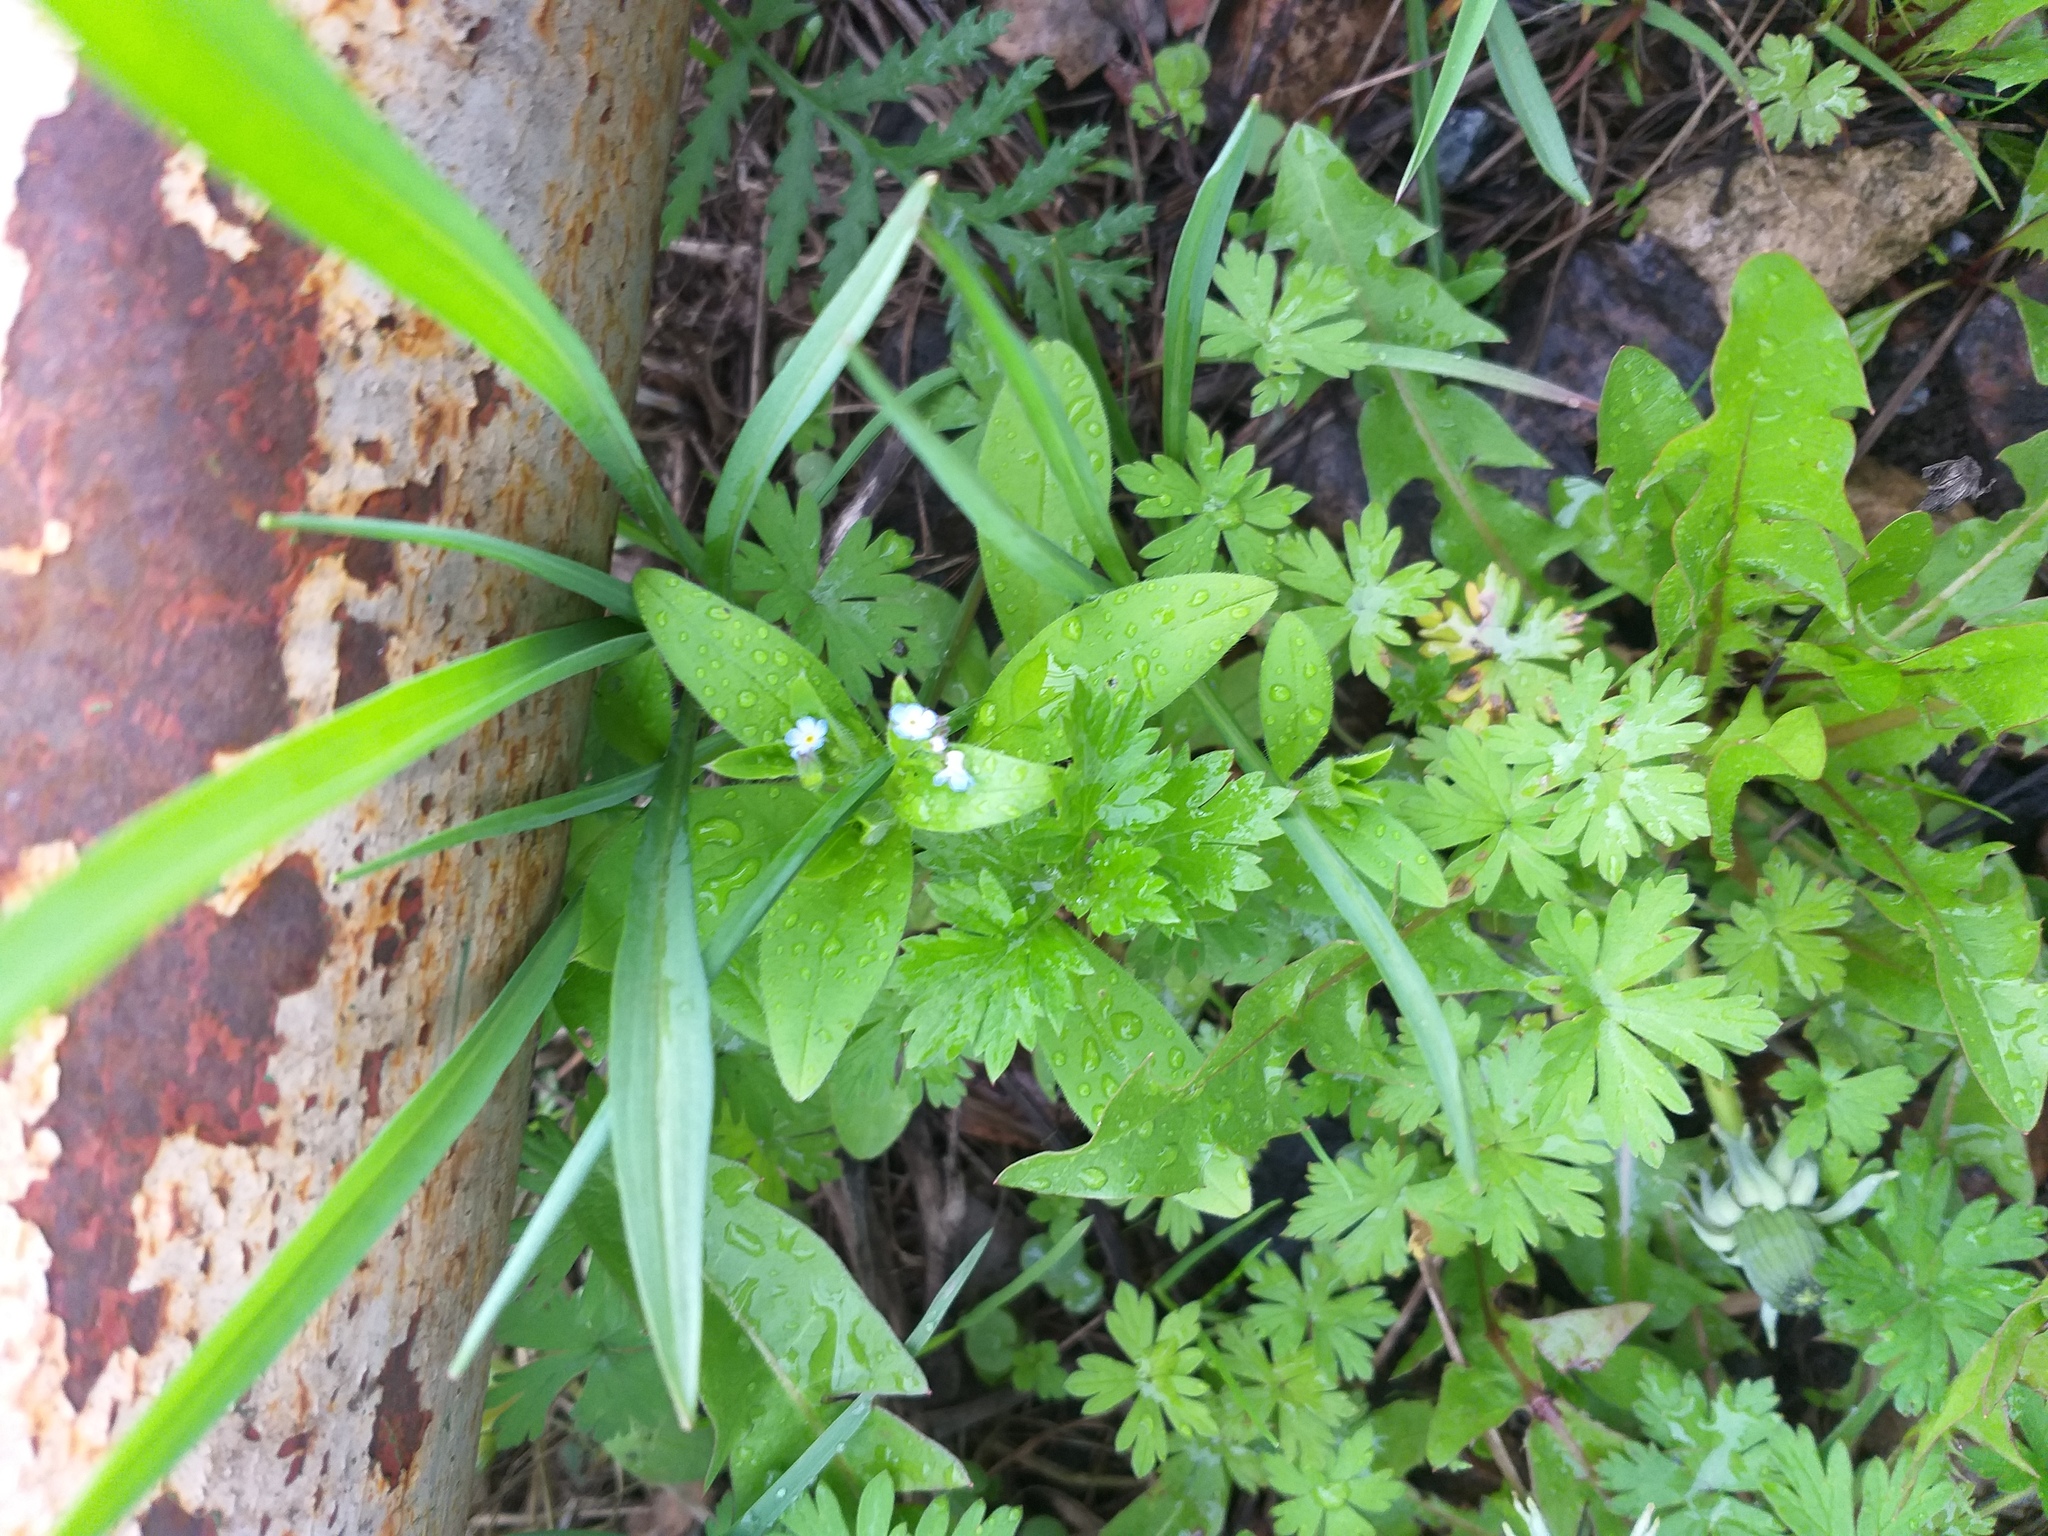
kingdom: Plantae
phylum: Tracheophyta
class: Magnoliopsida
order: Boraginales
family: Boraginaceae
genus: Myosotis
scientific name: Myosotis sparsiflora
